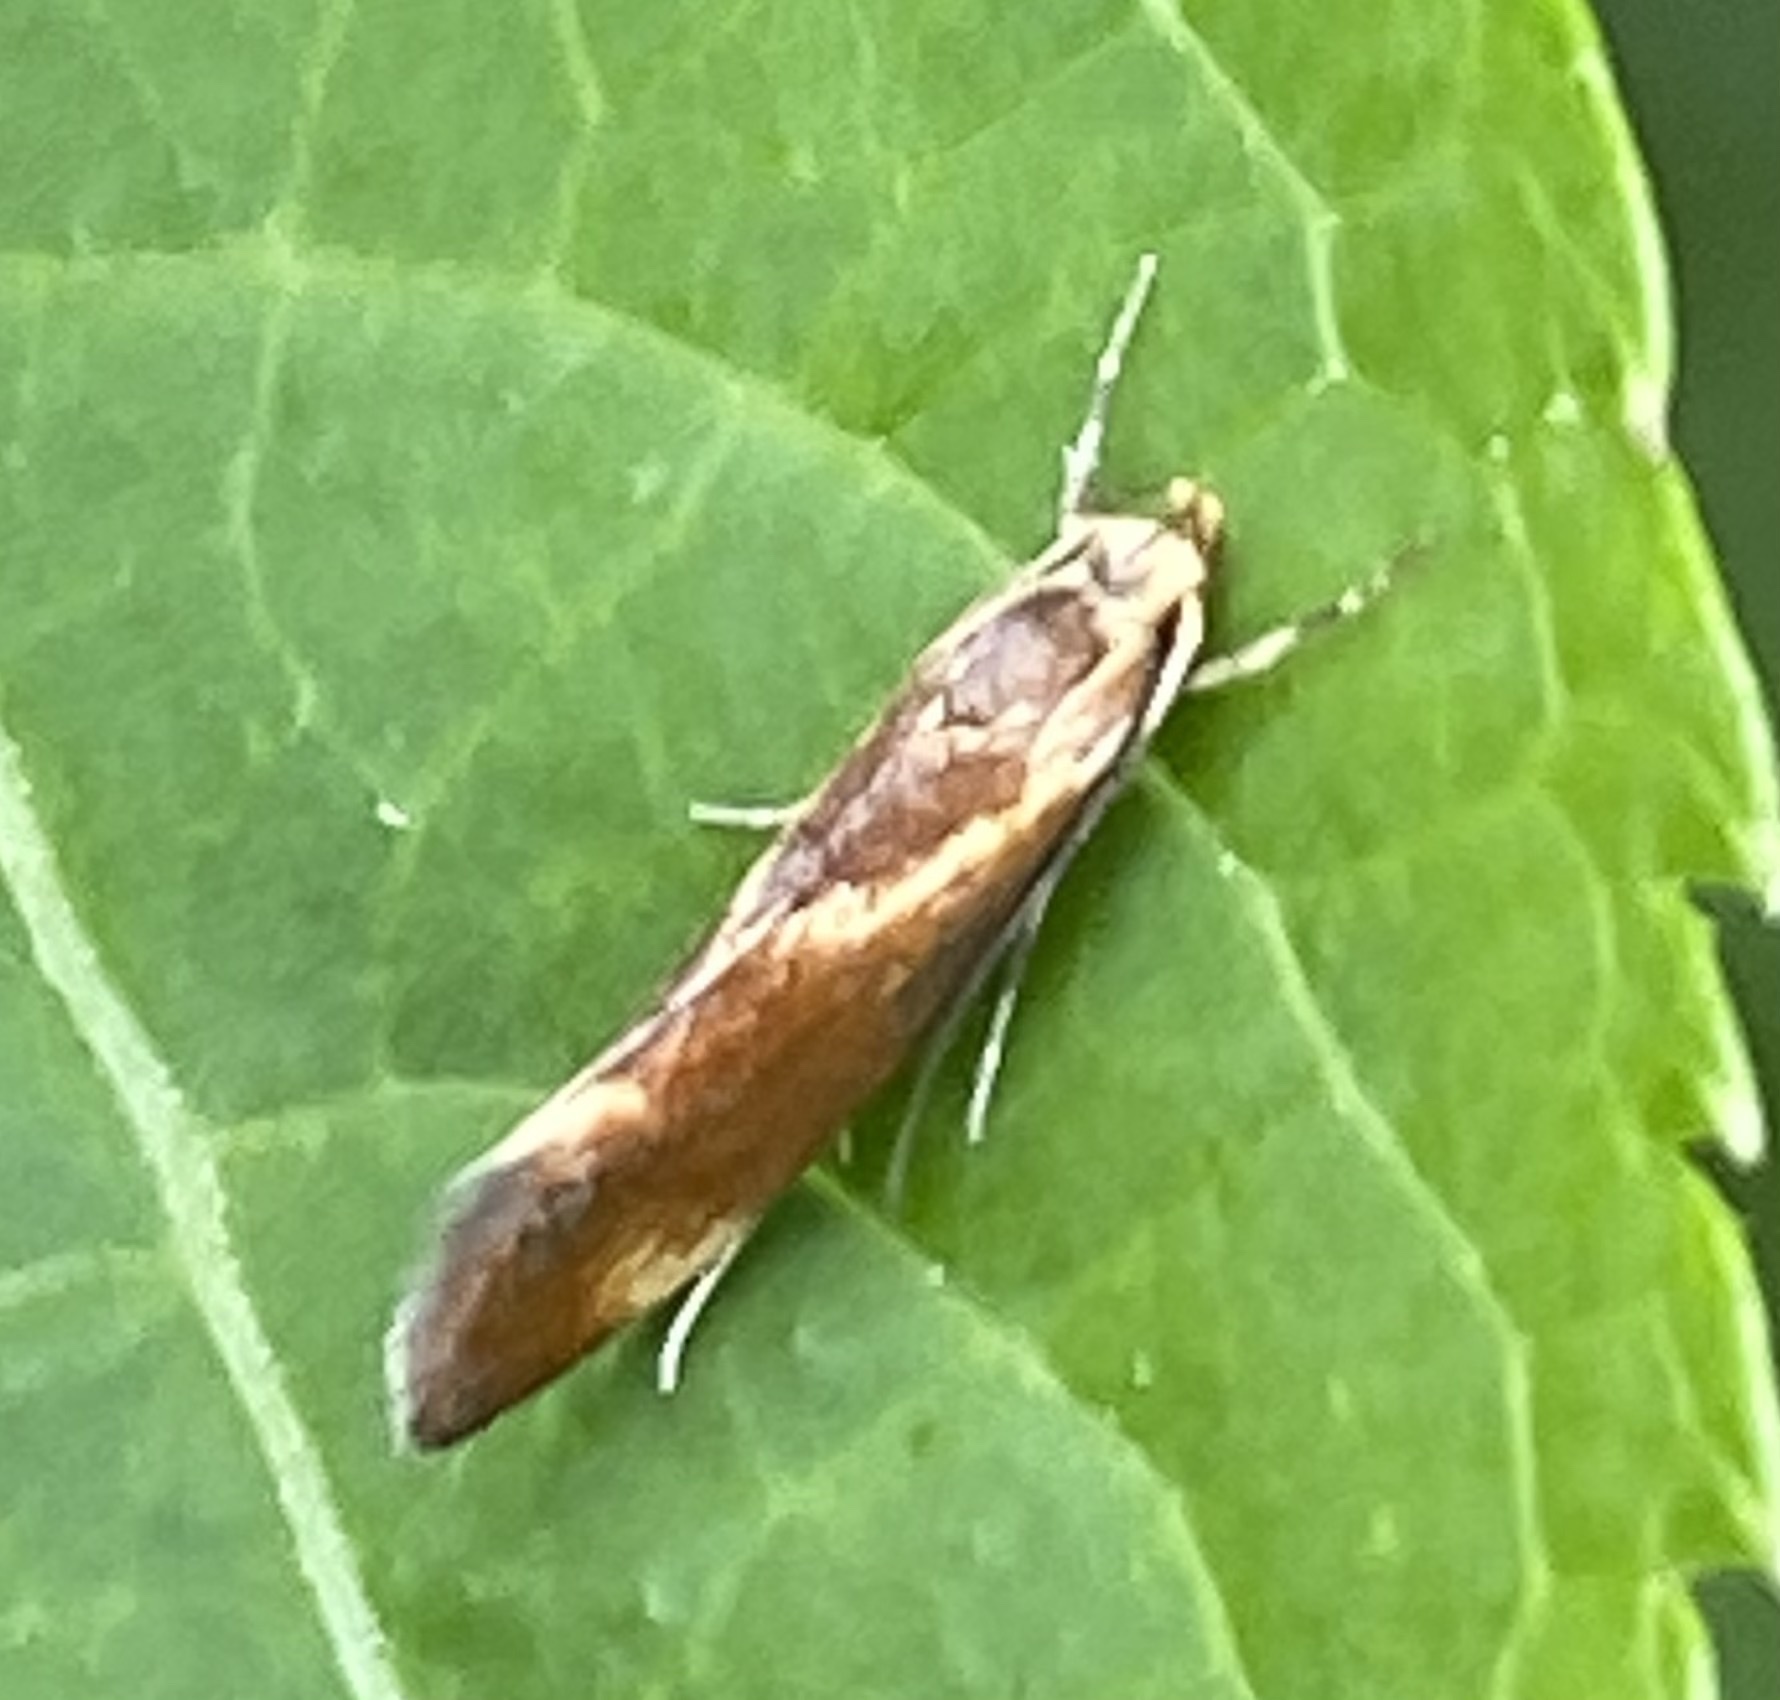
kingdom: Animalia
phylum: Arthropoda
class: Insecta
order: Lepidoptera
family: Oecophoridae
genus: Borkhausenia
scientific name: Borkhausenia italica
